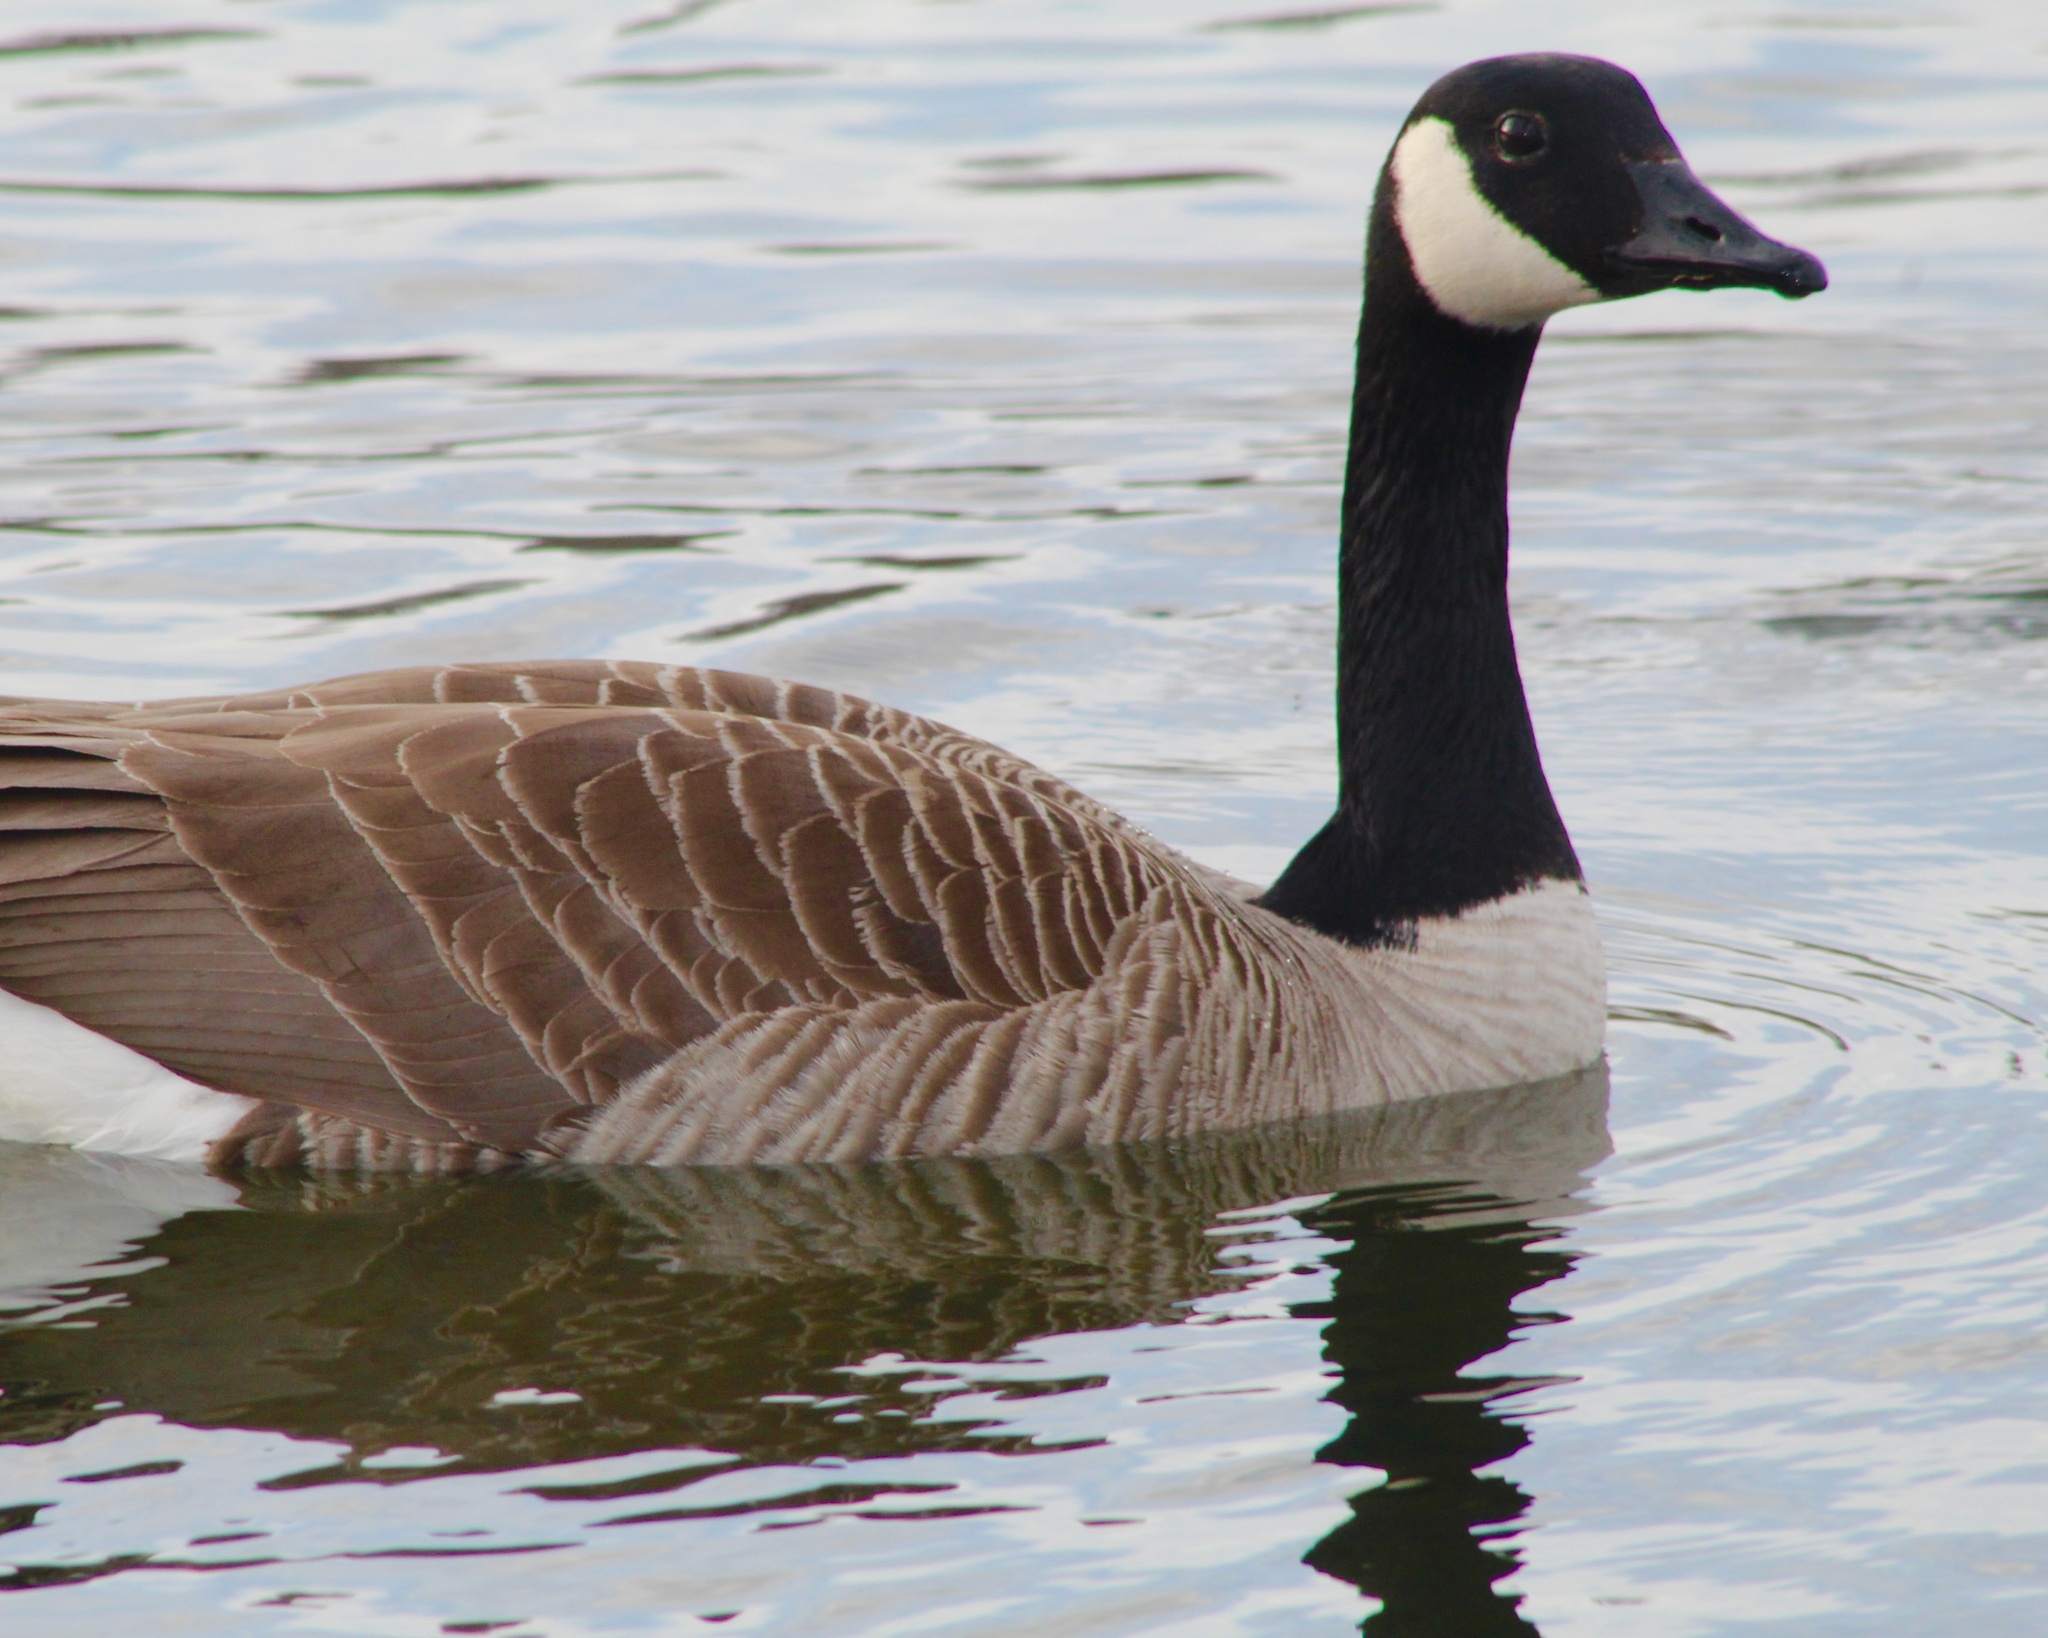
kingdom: Animalia
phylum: Chordata
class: Aves
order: Anseriformes
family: Anatidae
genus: Branta
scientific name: Branta canadensis
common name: Canada goose
